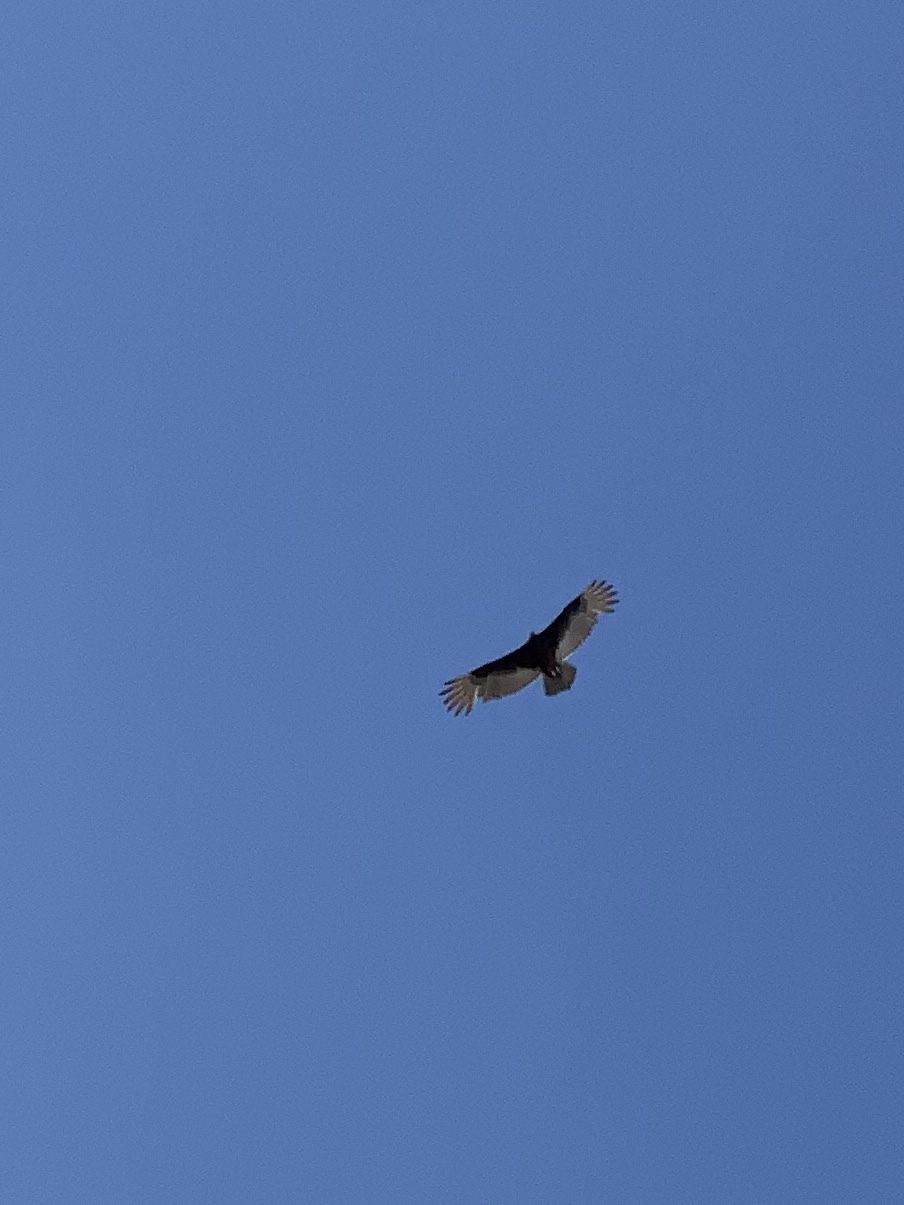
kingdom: Animalia
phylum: Chordata
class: Aves
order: Accipitriformes
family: Cathartidae
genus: Cathartes
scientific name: Cathartes aura
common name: Turkey vulture
